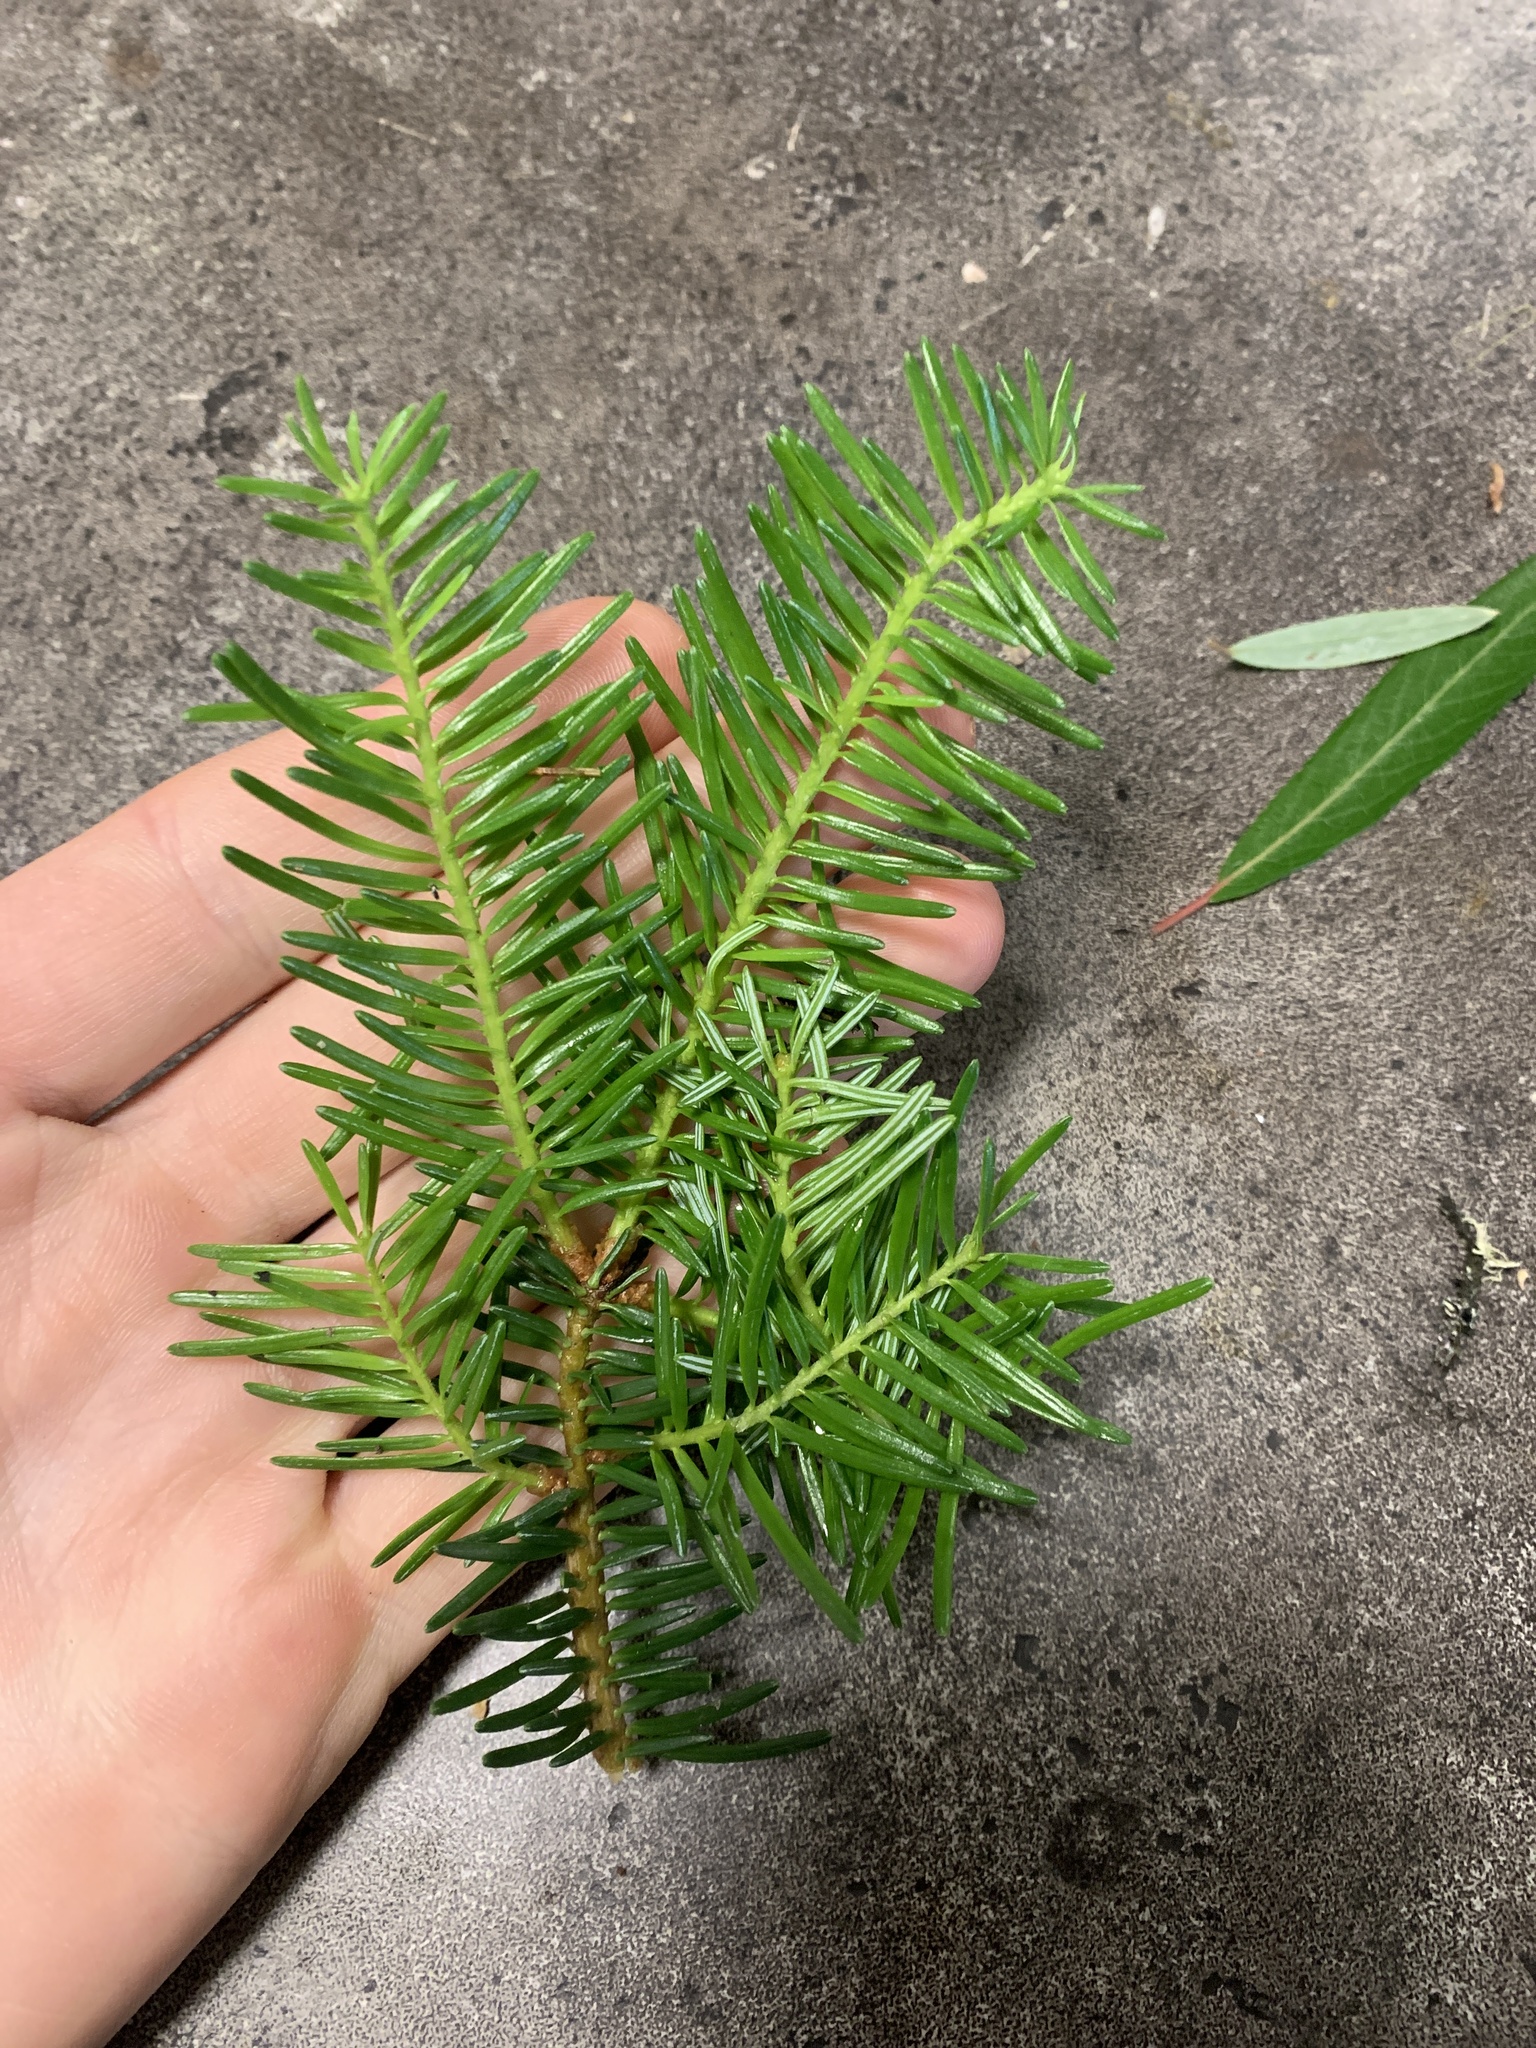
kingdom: Plantae
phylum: Tracheophyta
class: Pinopsida
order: Pinales
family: Pinaceae
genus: Abies
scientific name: Abies balsamea
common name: Balsam fir
